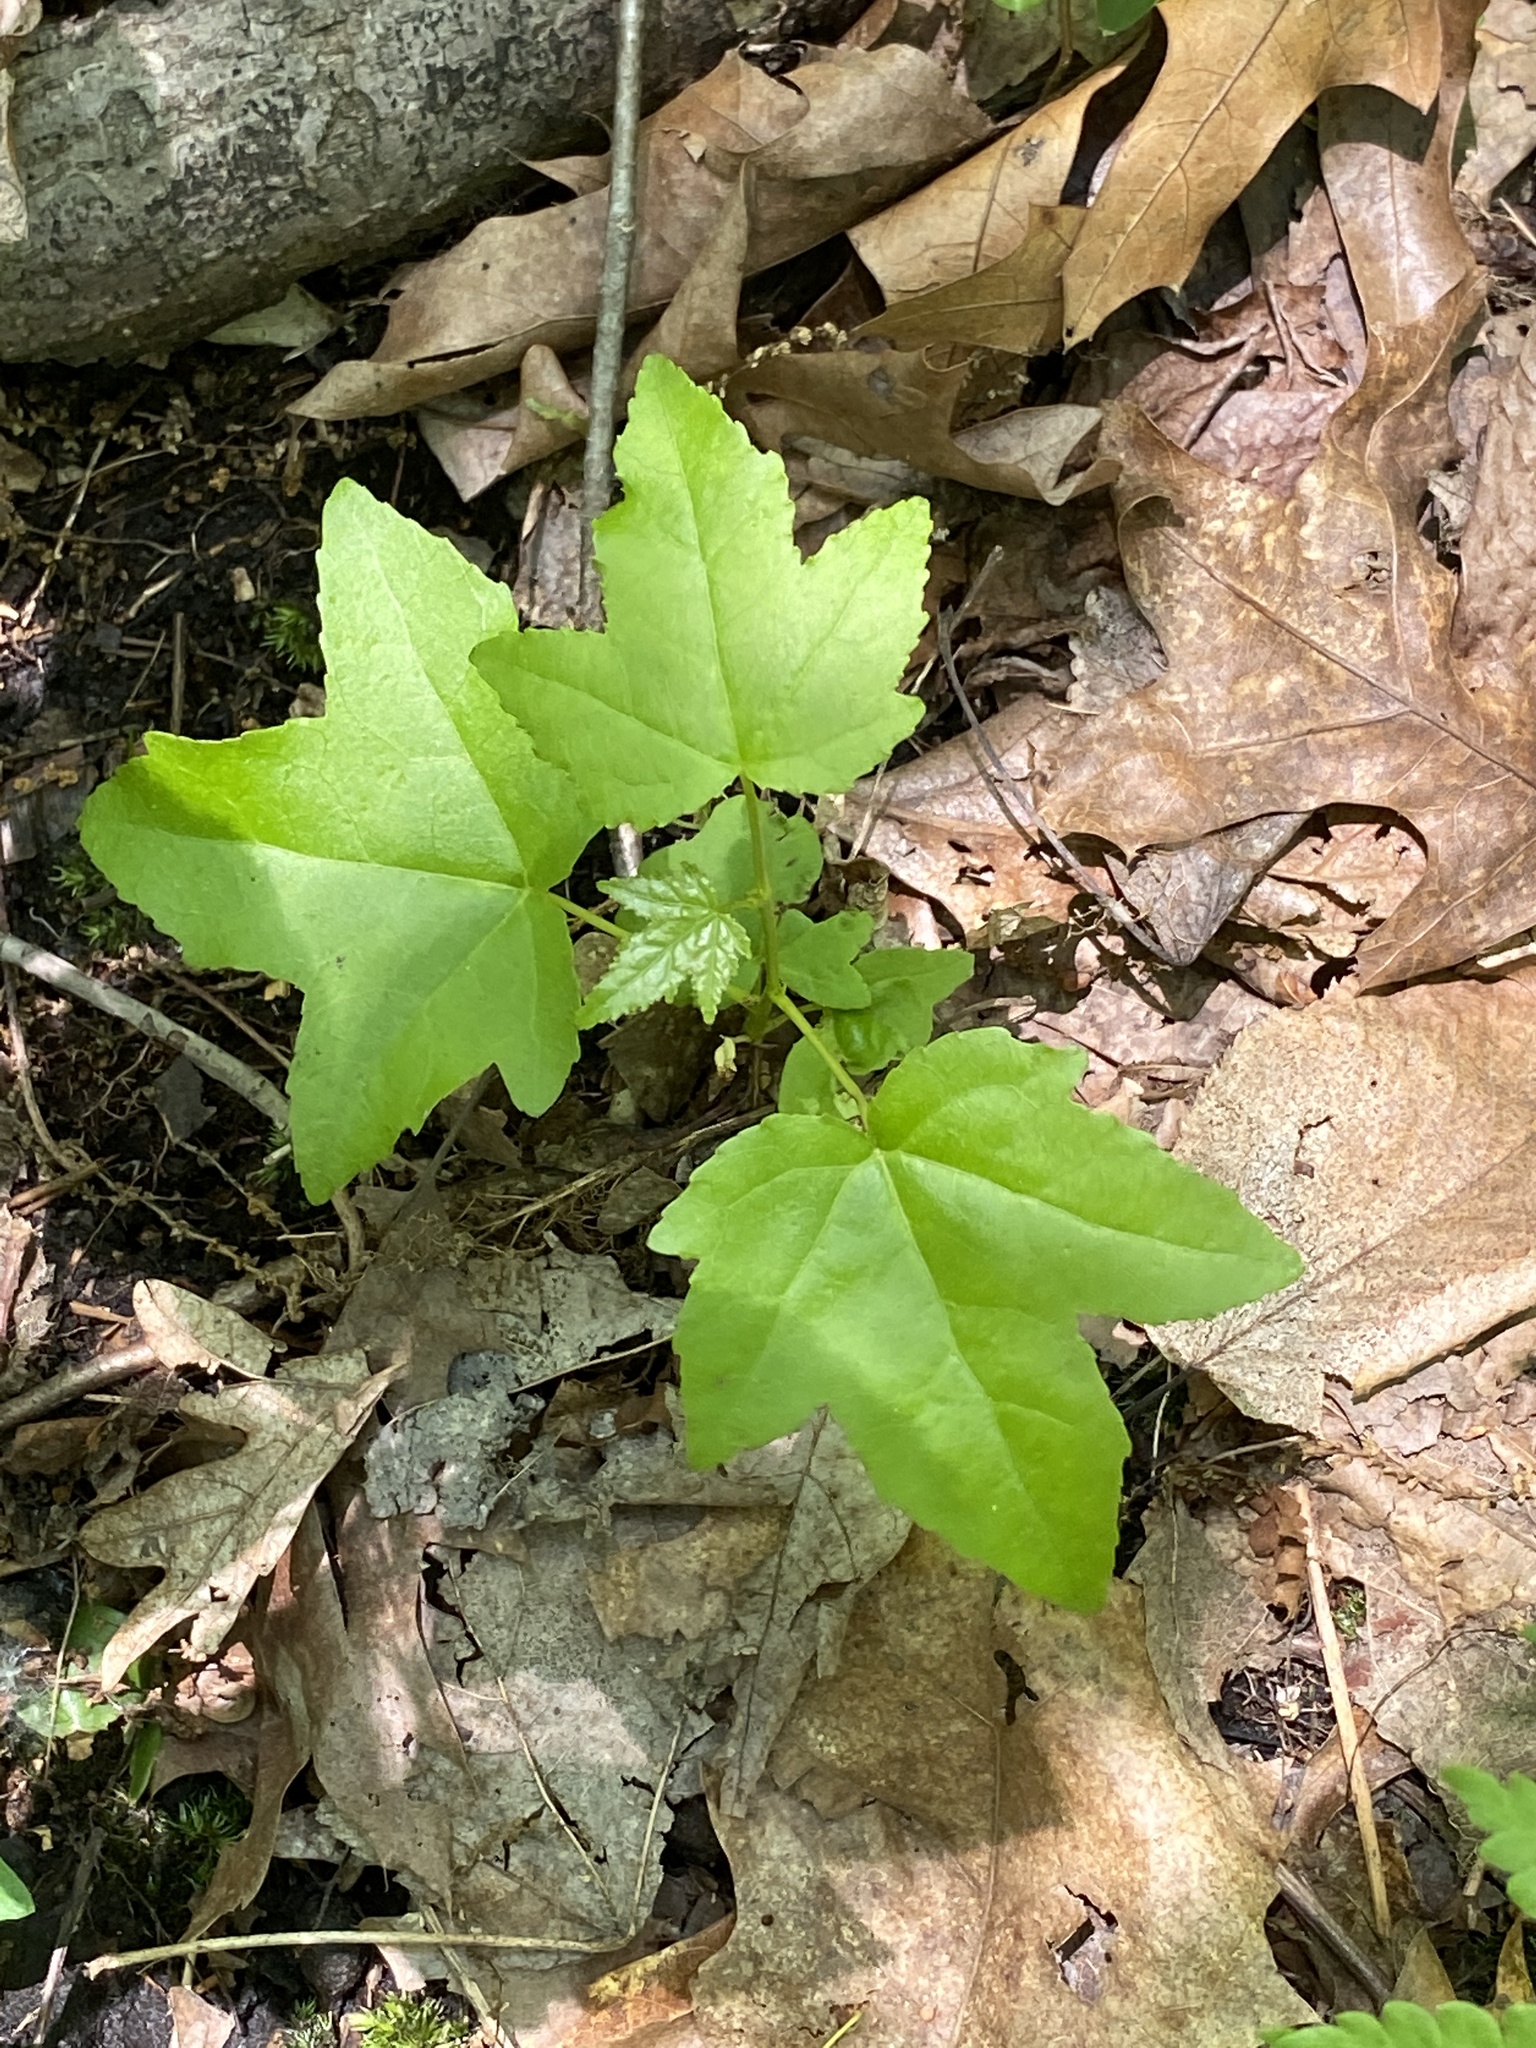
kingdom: Plantae
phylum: Tracheophyta
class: Magnoliopsida
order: Saxifragales
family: Altingiaceae
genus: Liquidambar
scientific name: Liquidambar styraciflua
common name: Sweet gum
